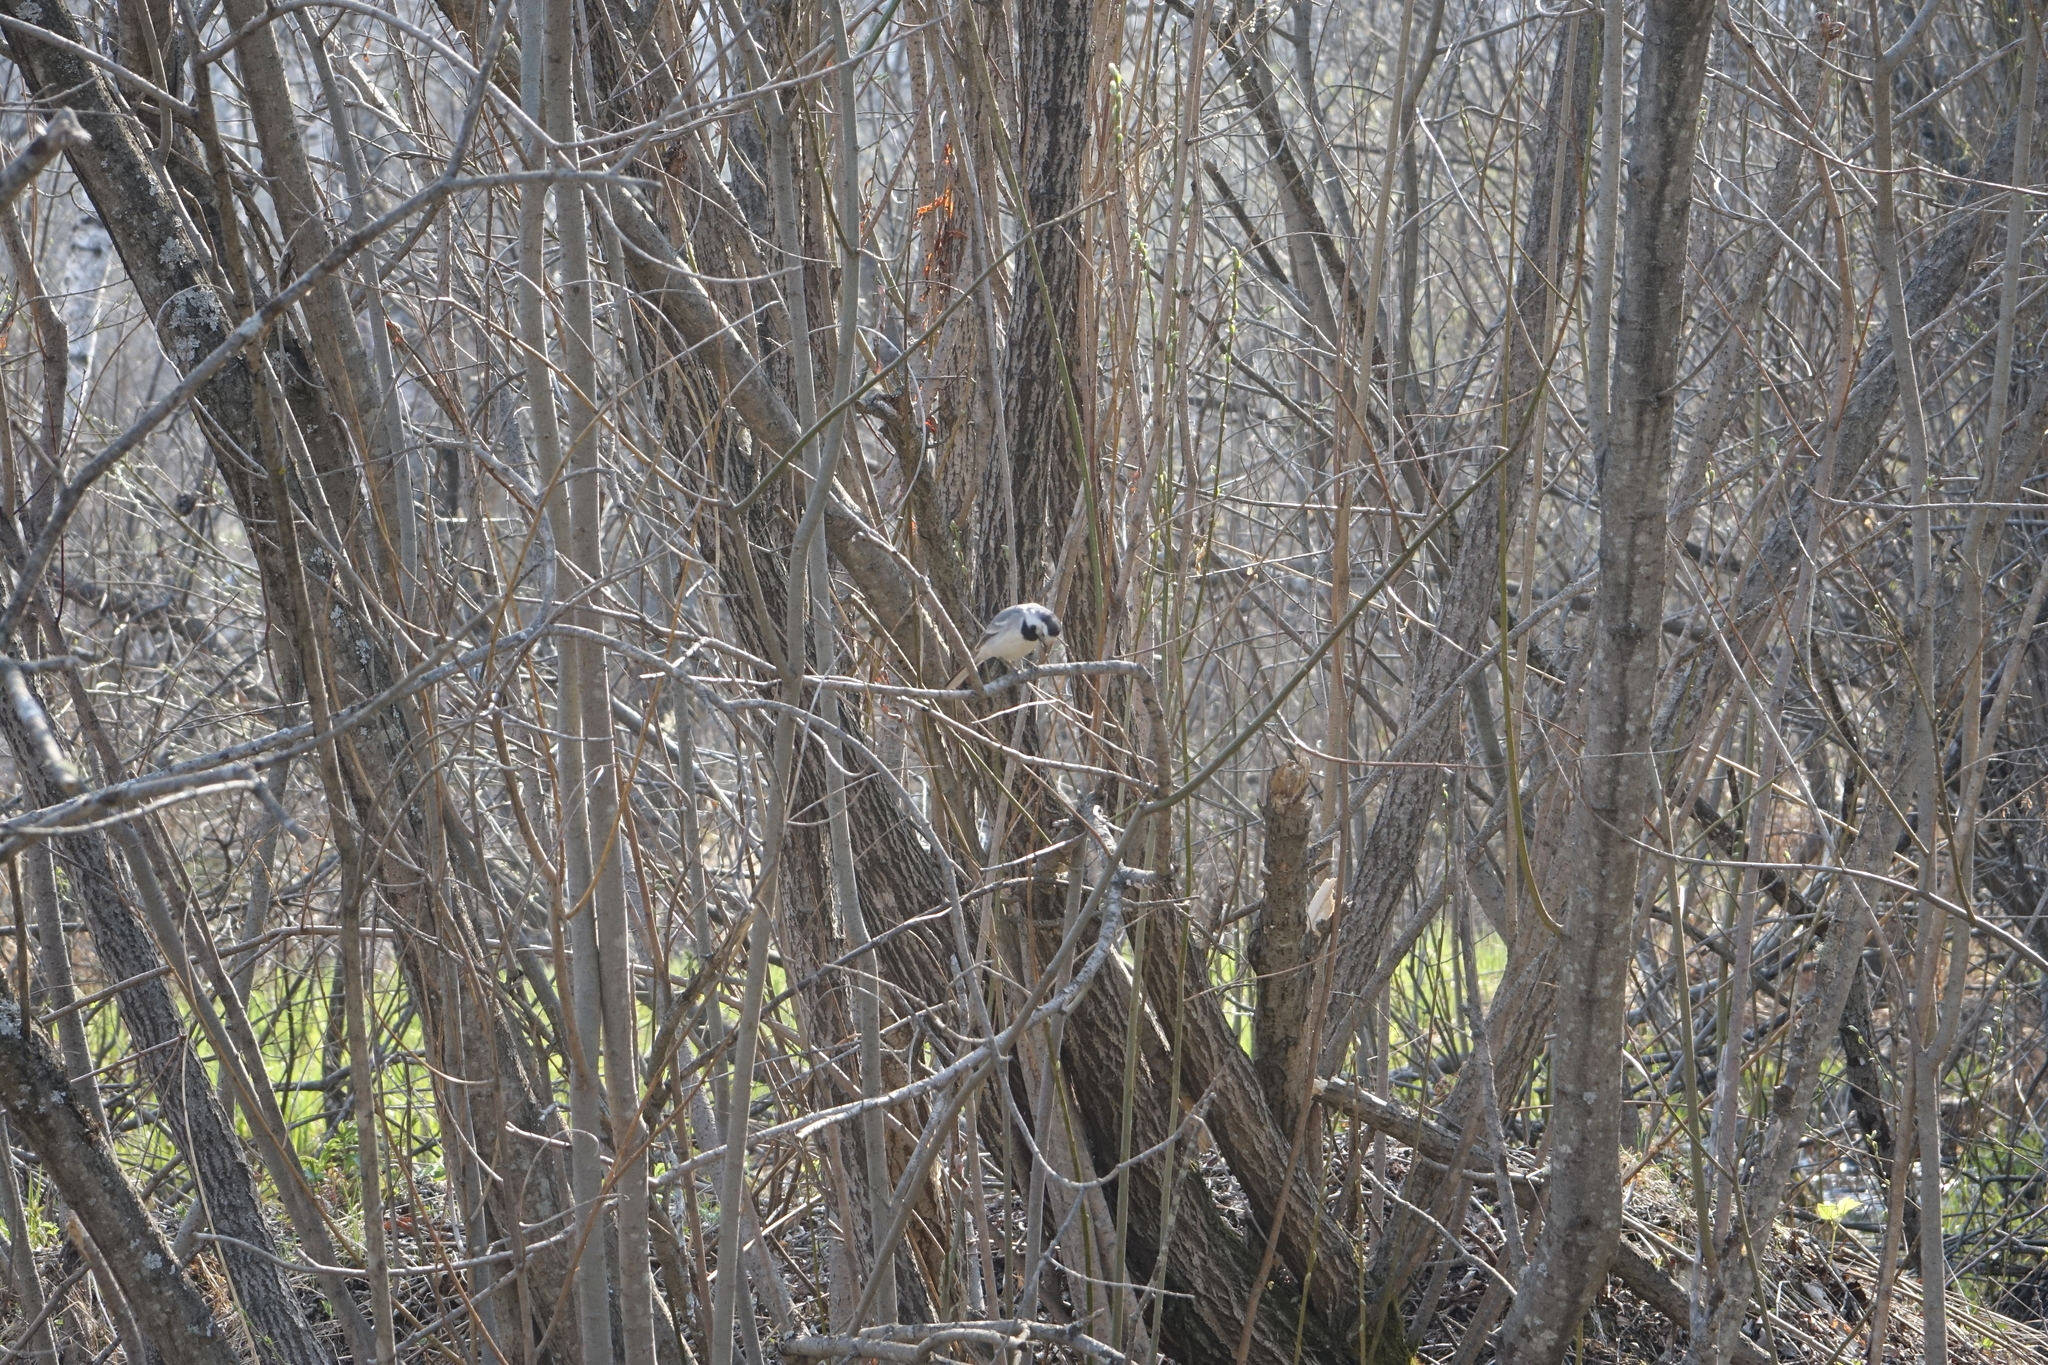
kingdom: Animalia
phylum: Chordata
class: Aves
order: Passeriformes
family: Motacillidae
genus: Motacilla
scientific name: Motacilla alba
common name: White wagtail
